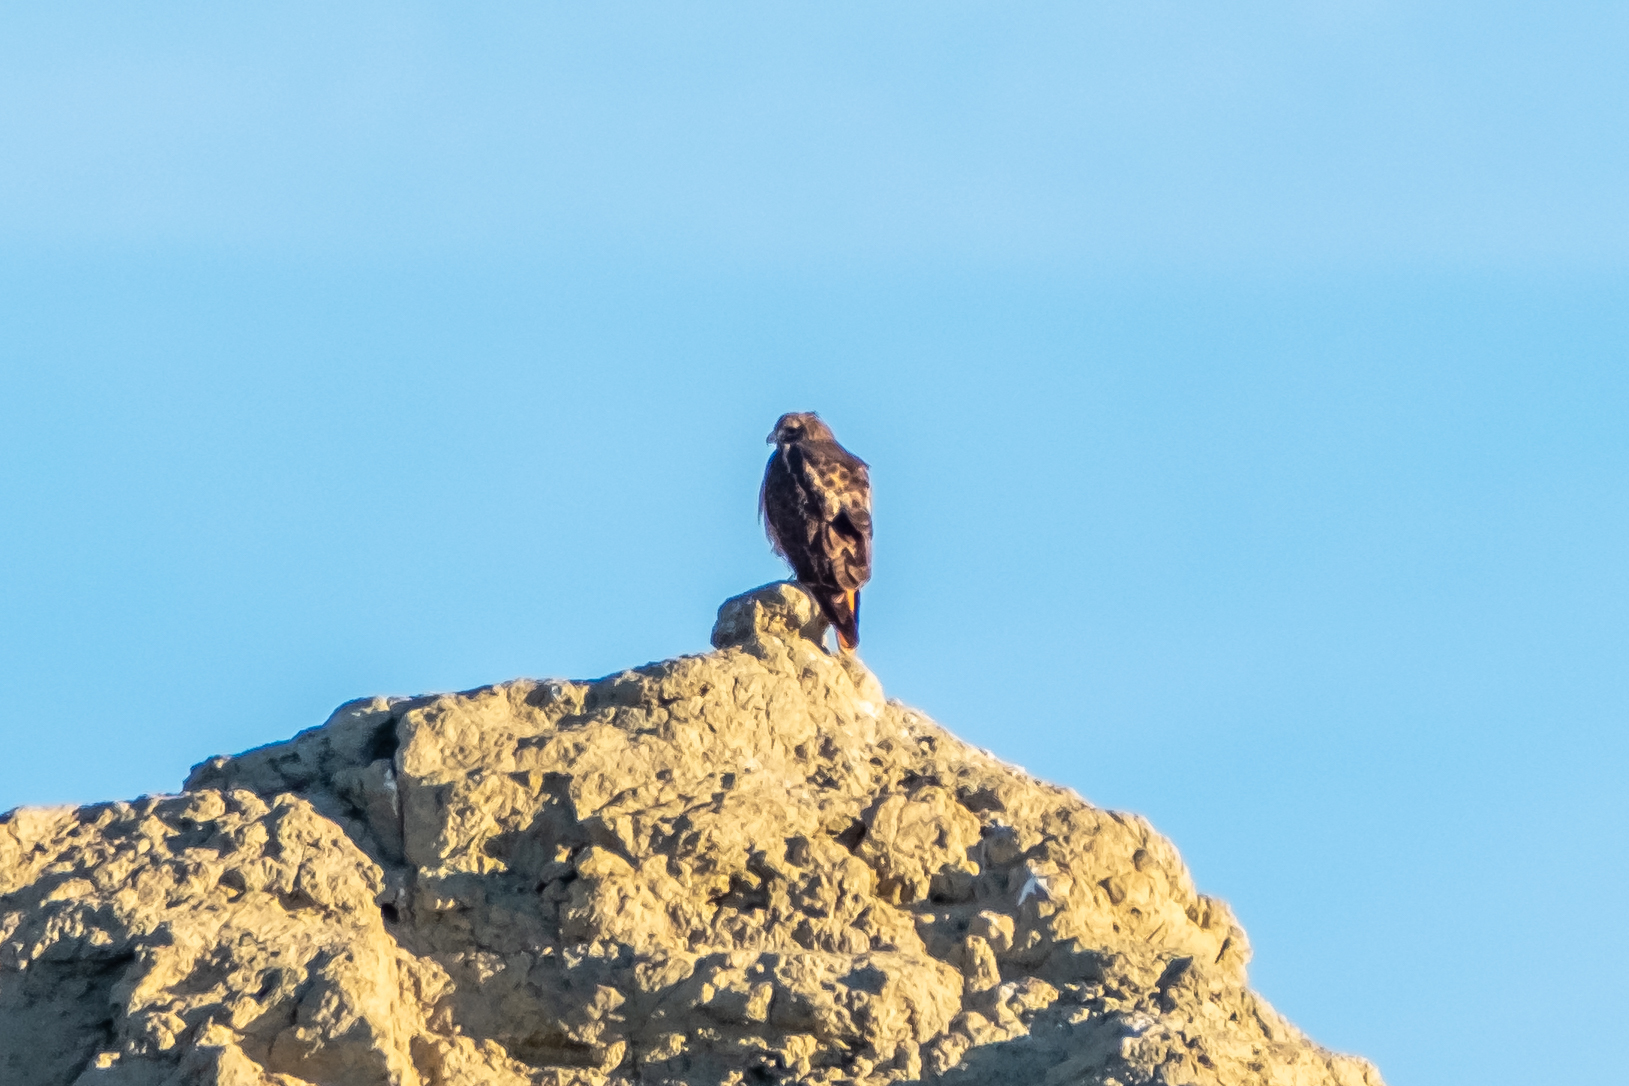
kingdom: Animalia
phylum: Chordata
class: Aves
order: Accipitriformes
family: Accipitridae
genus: Buteo
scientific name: Buteo jamaicensis
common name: Red-tailed hawk
